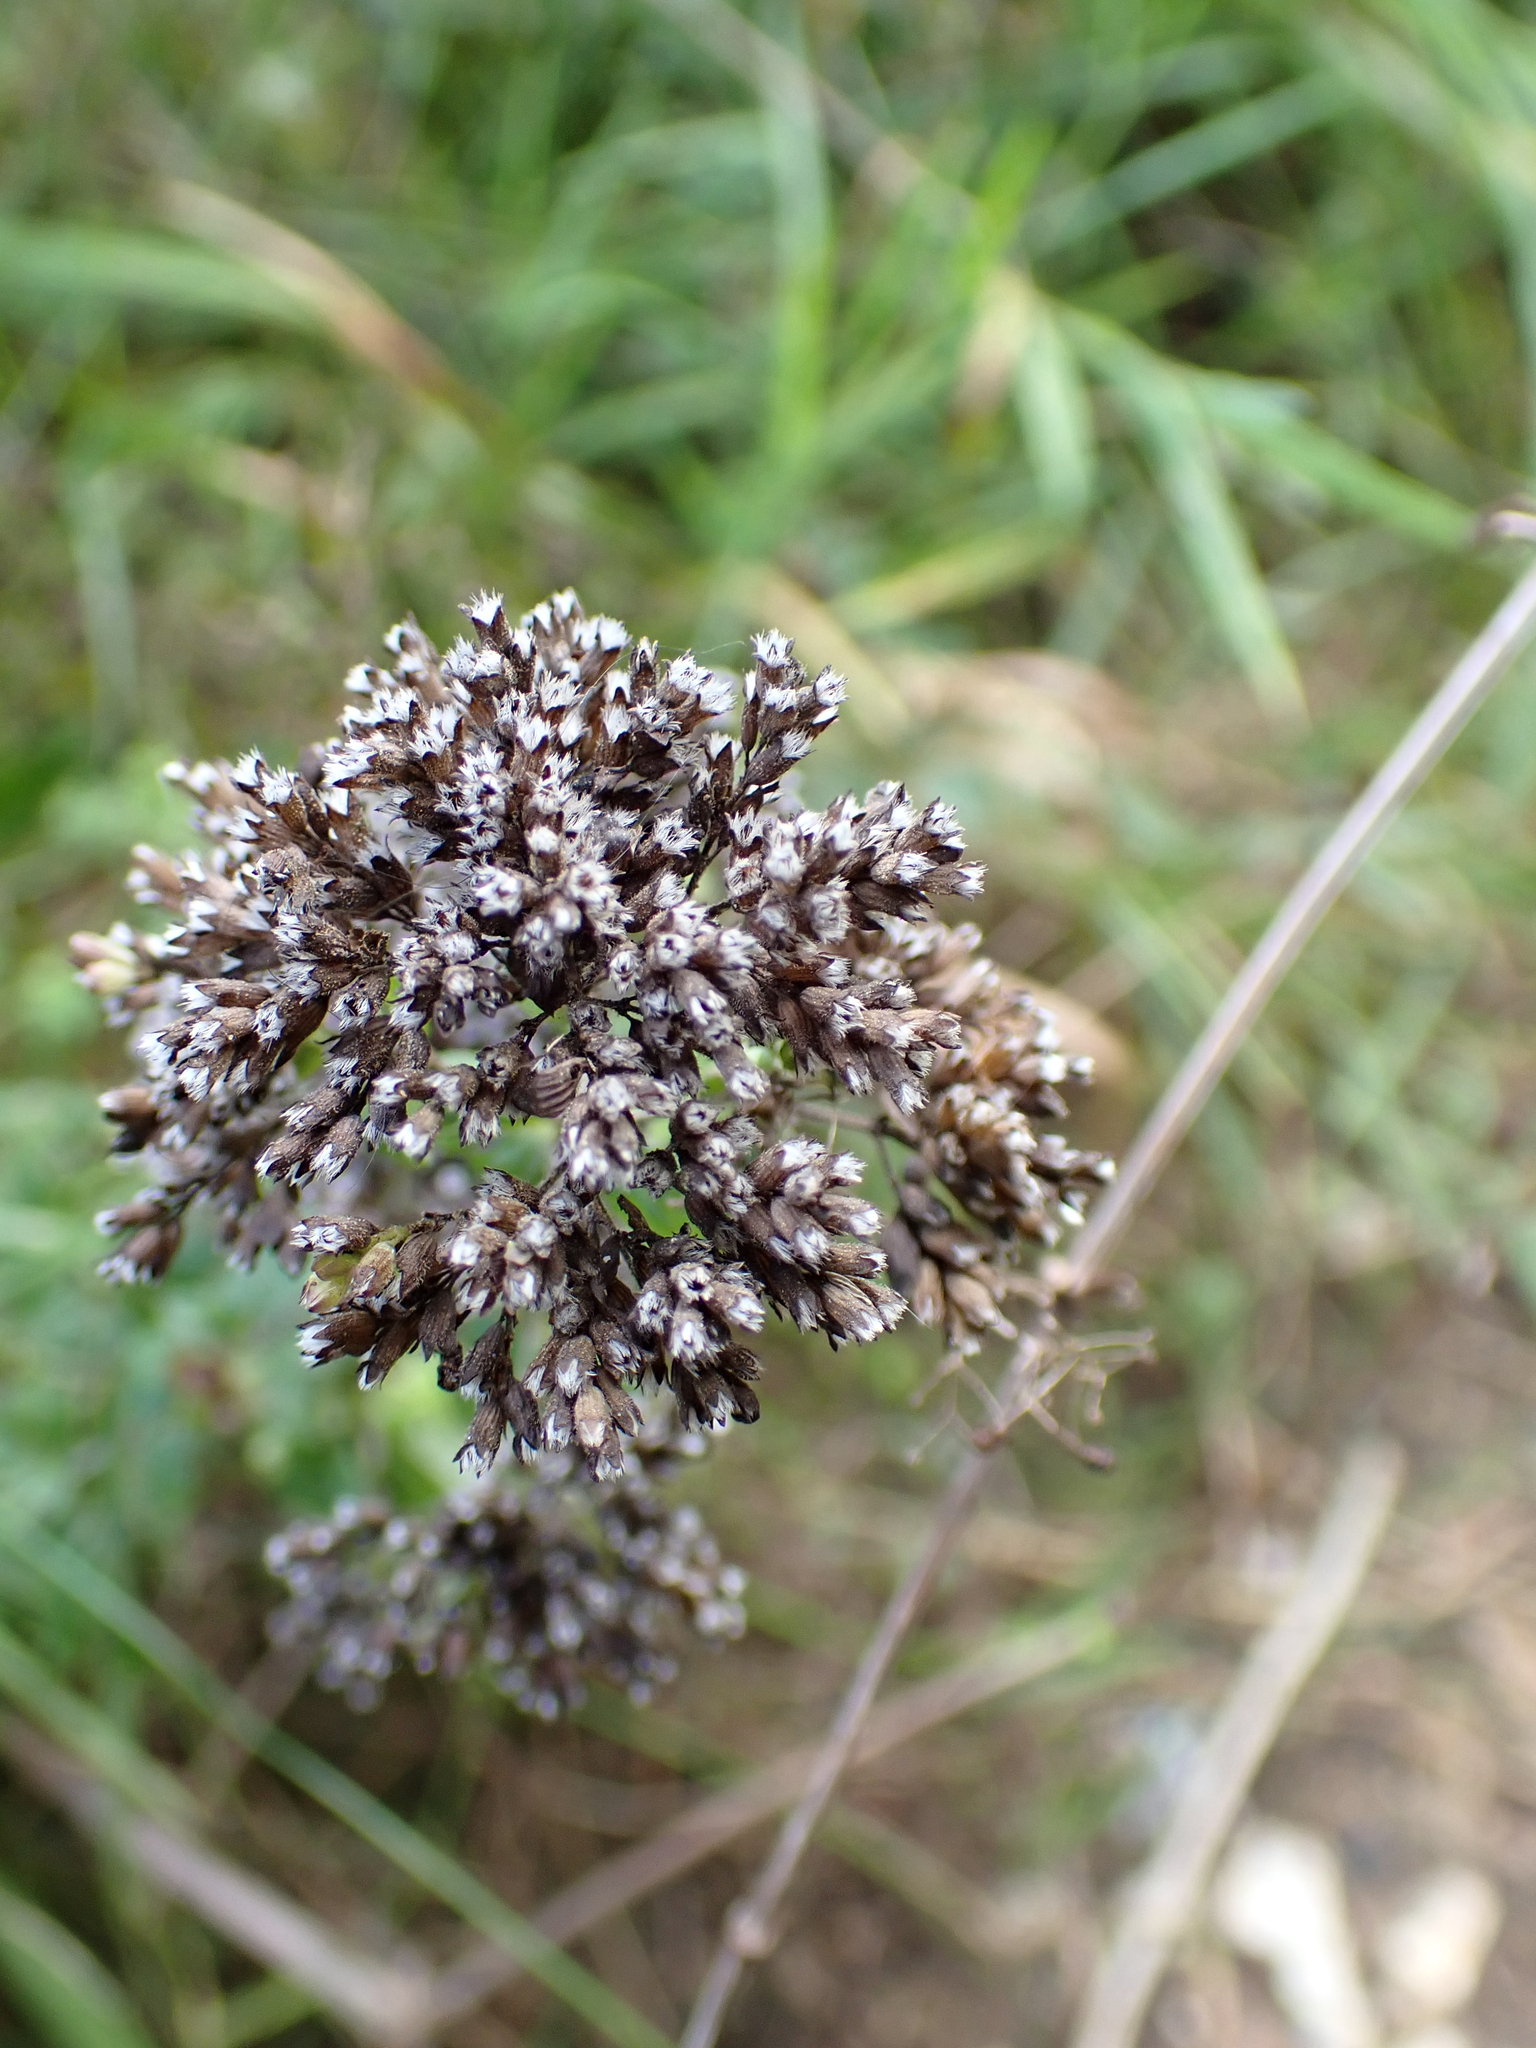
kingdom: Plantae
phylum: Tracheophyta
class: Magnoliopsida
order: Lamiales
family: Lamiaceae
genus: Origanum
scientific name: Origanum vulgare
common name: Wild marjoram
